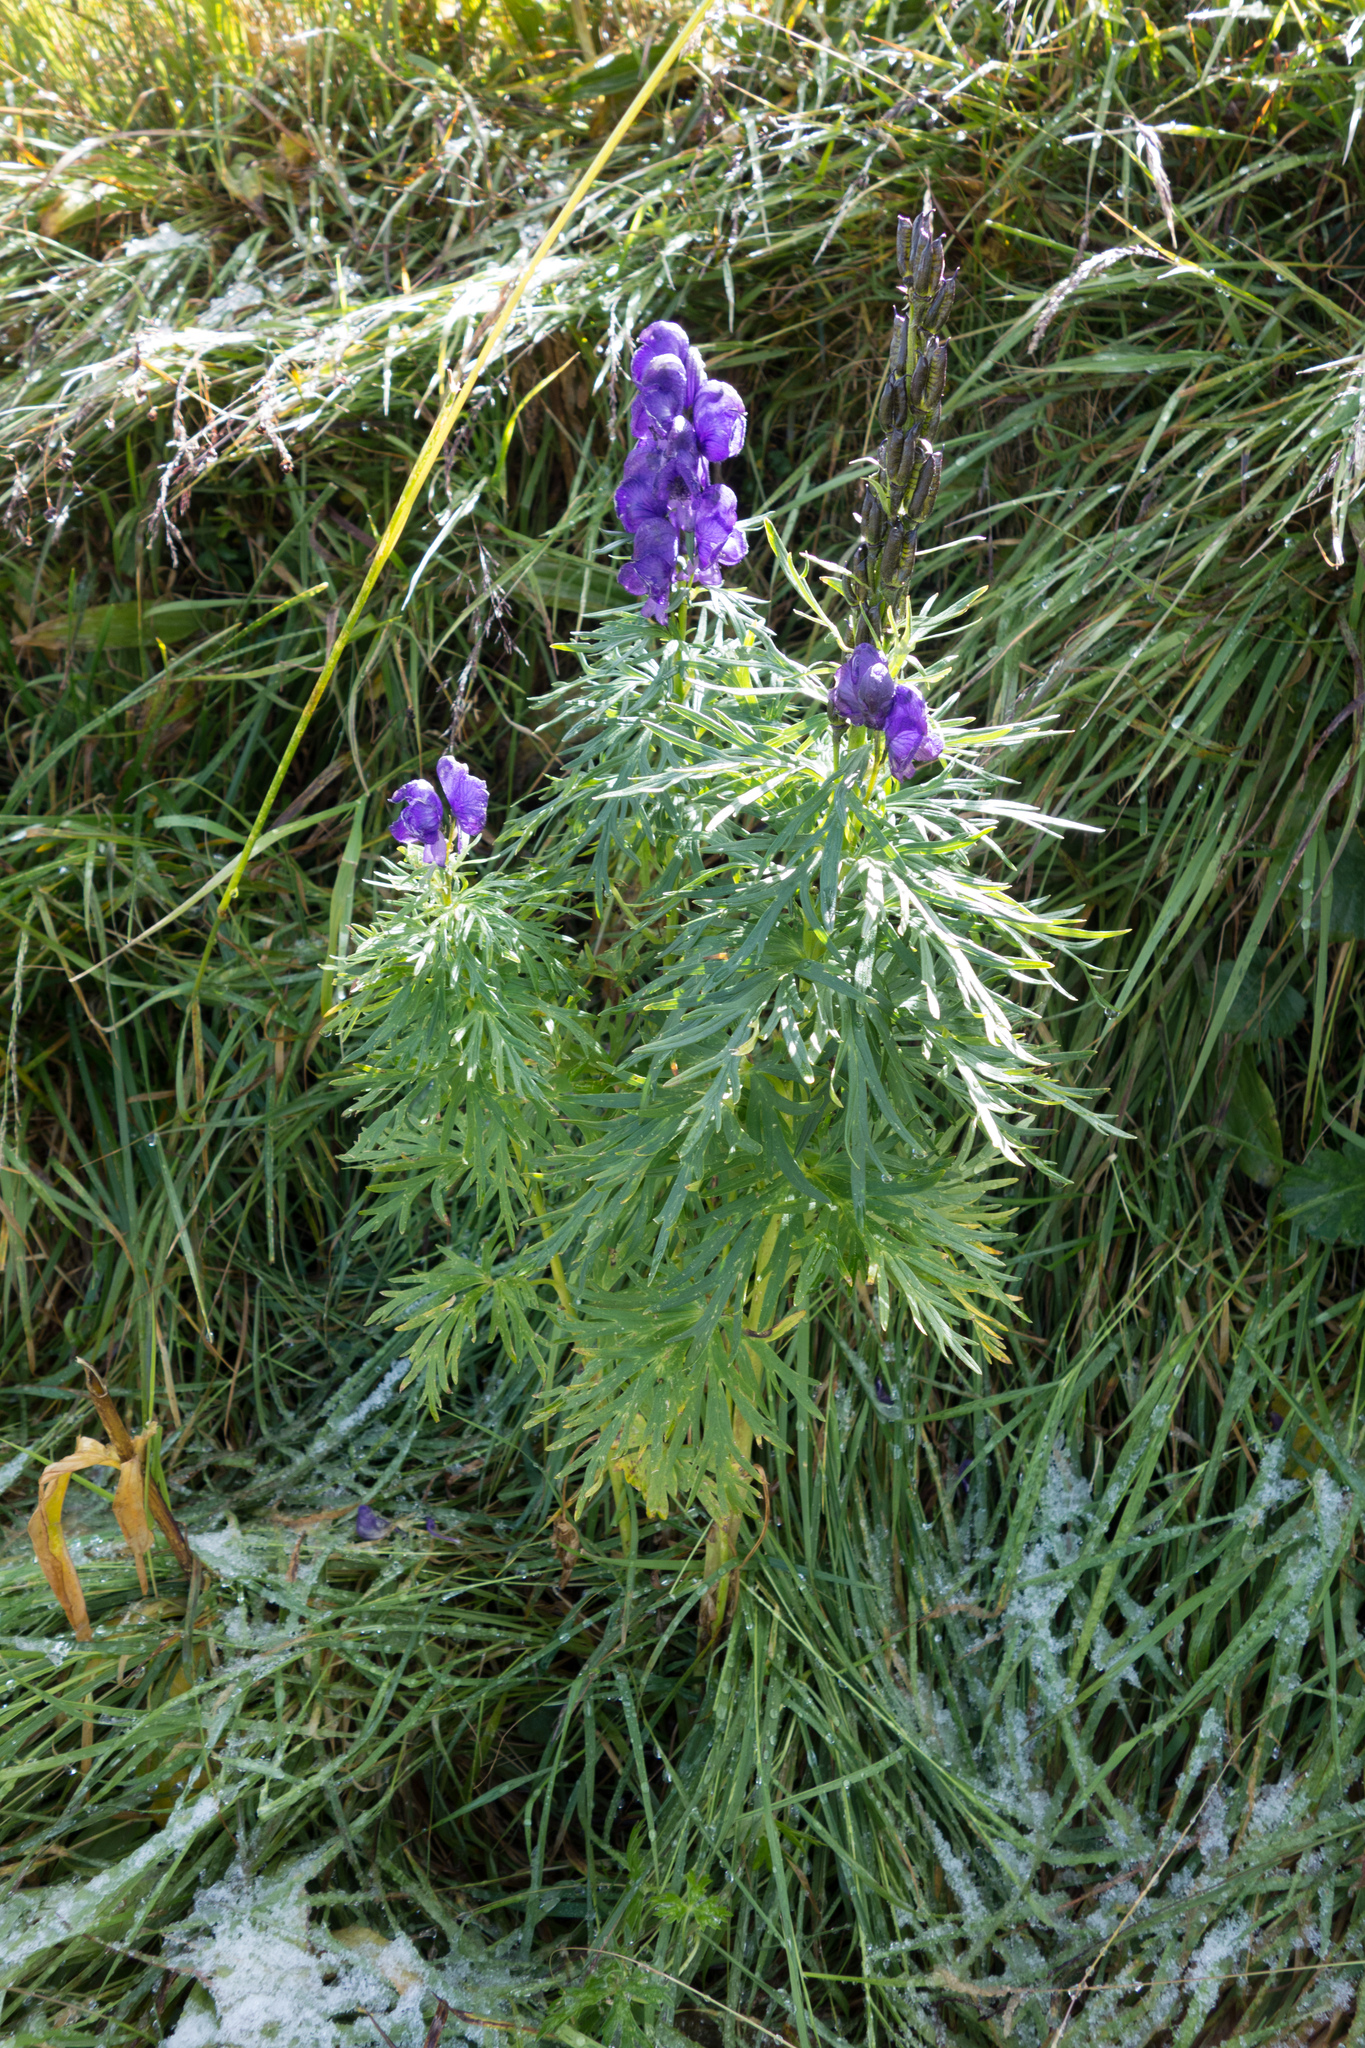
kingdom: Plantae
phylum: Tracheophyta
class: Magnoliopsida
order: Ranunculales
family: Ranunculaceae
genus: Aconitum
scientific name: Aconitum tauricum
